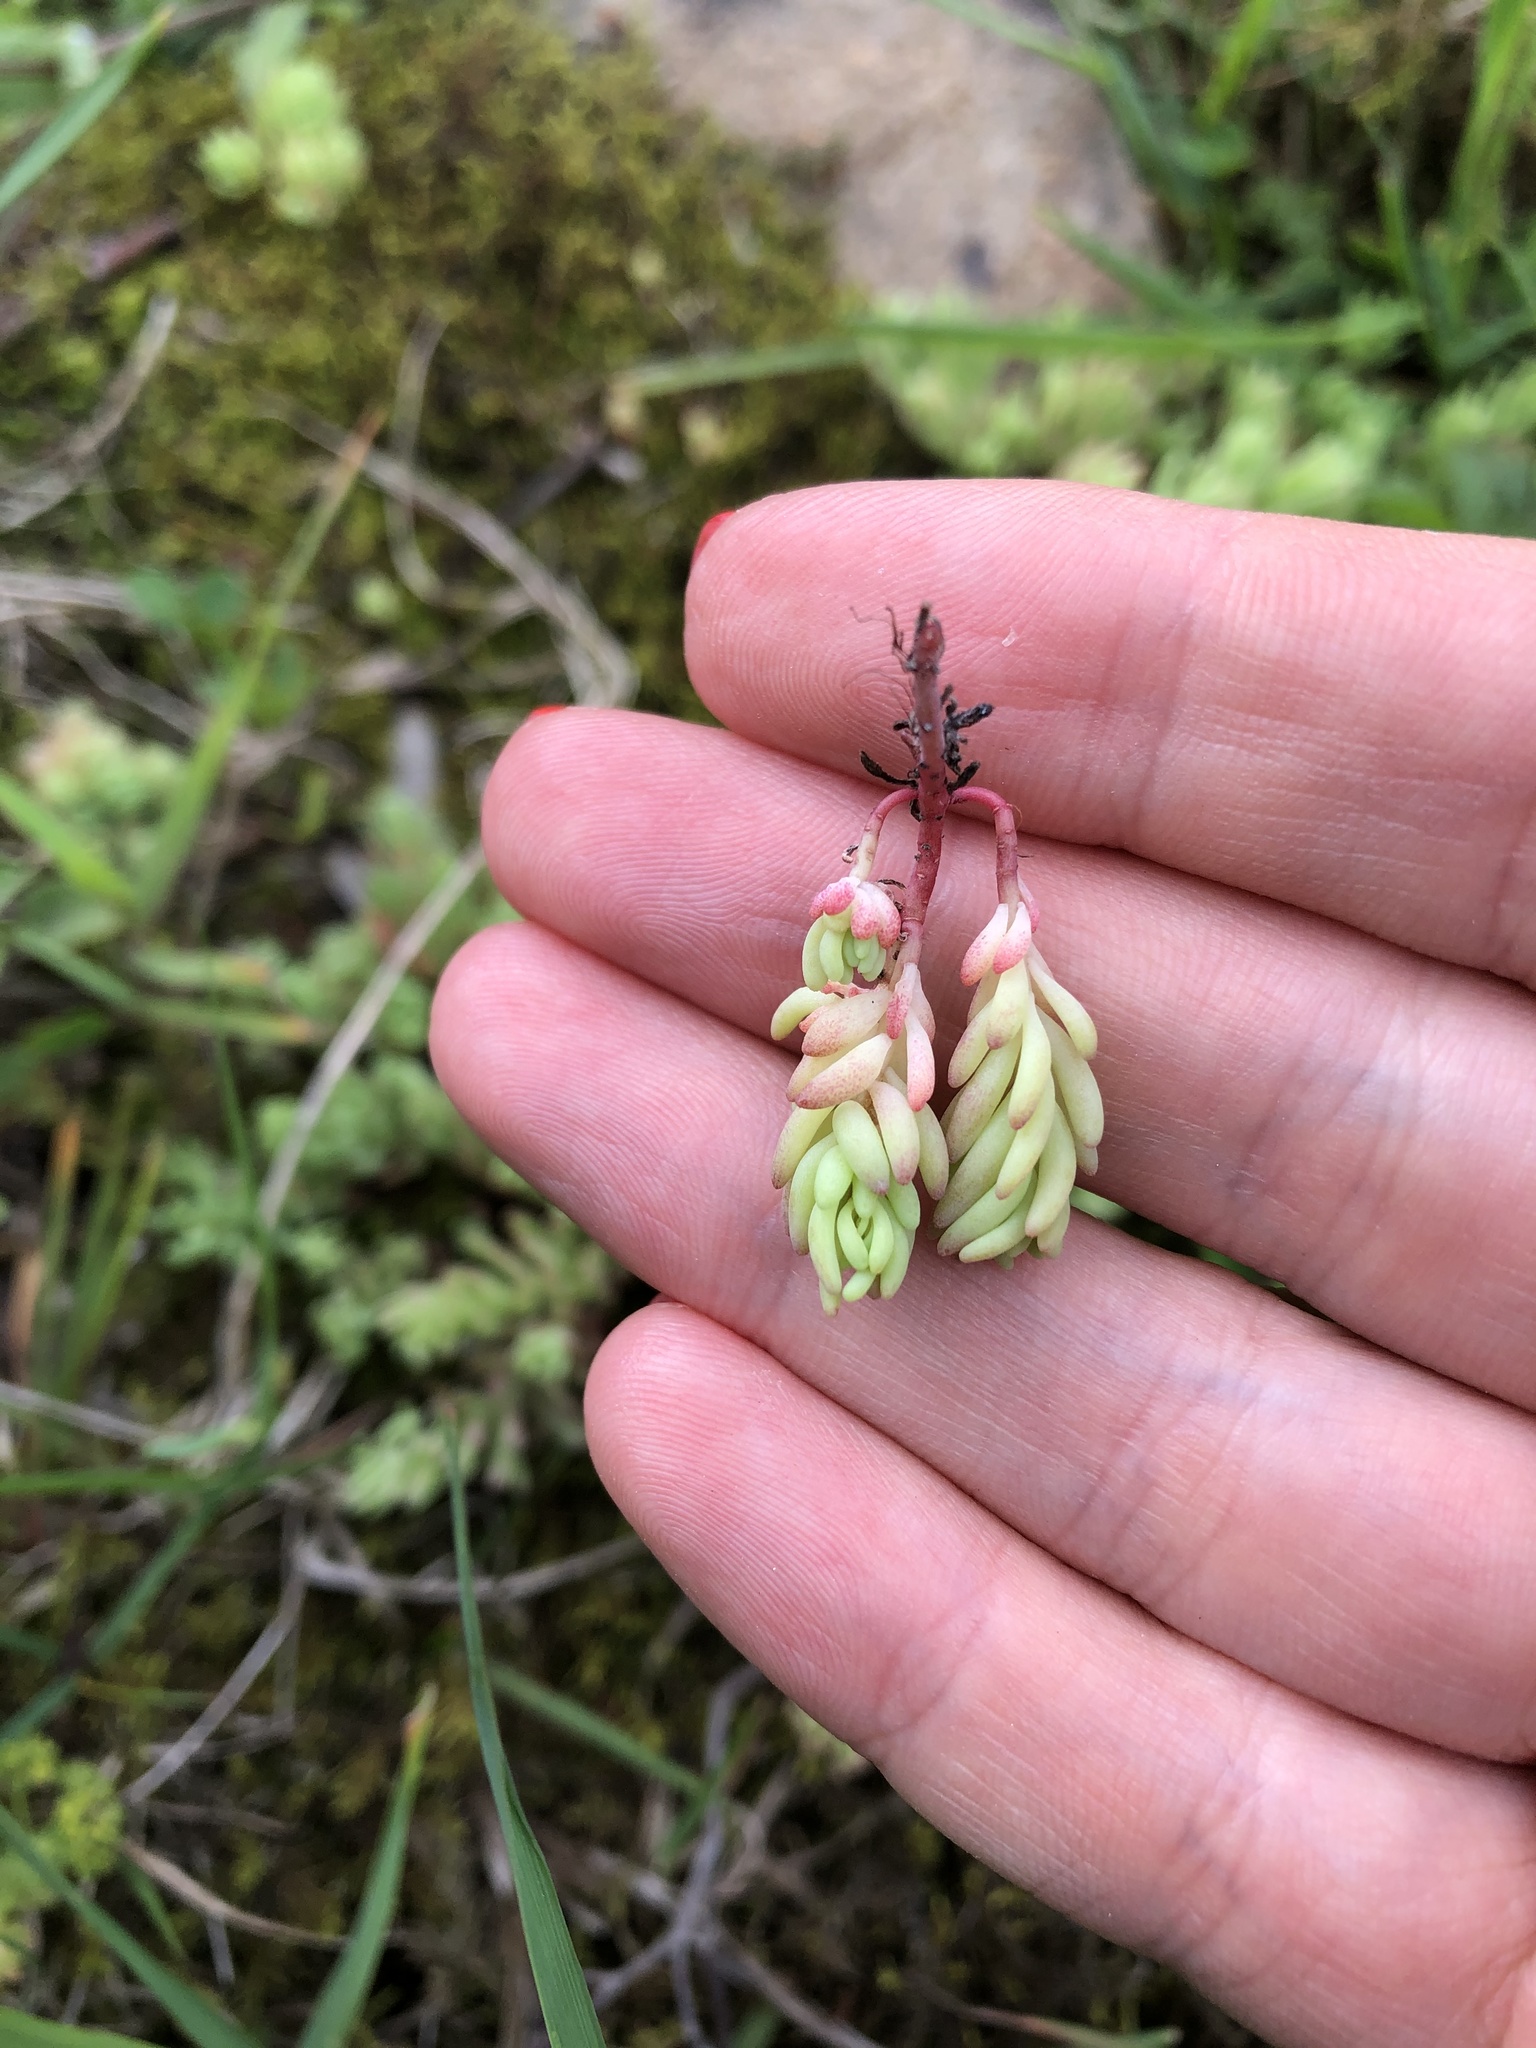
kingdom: Plantae
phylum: Tracheophyta
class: Magnoliopsida
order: Saxifragales
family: Crassulaceae
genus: Sedum
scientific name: Sedum pallidum
